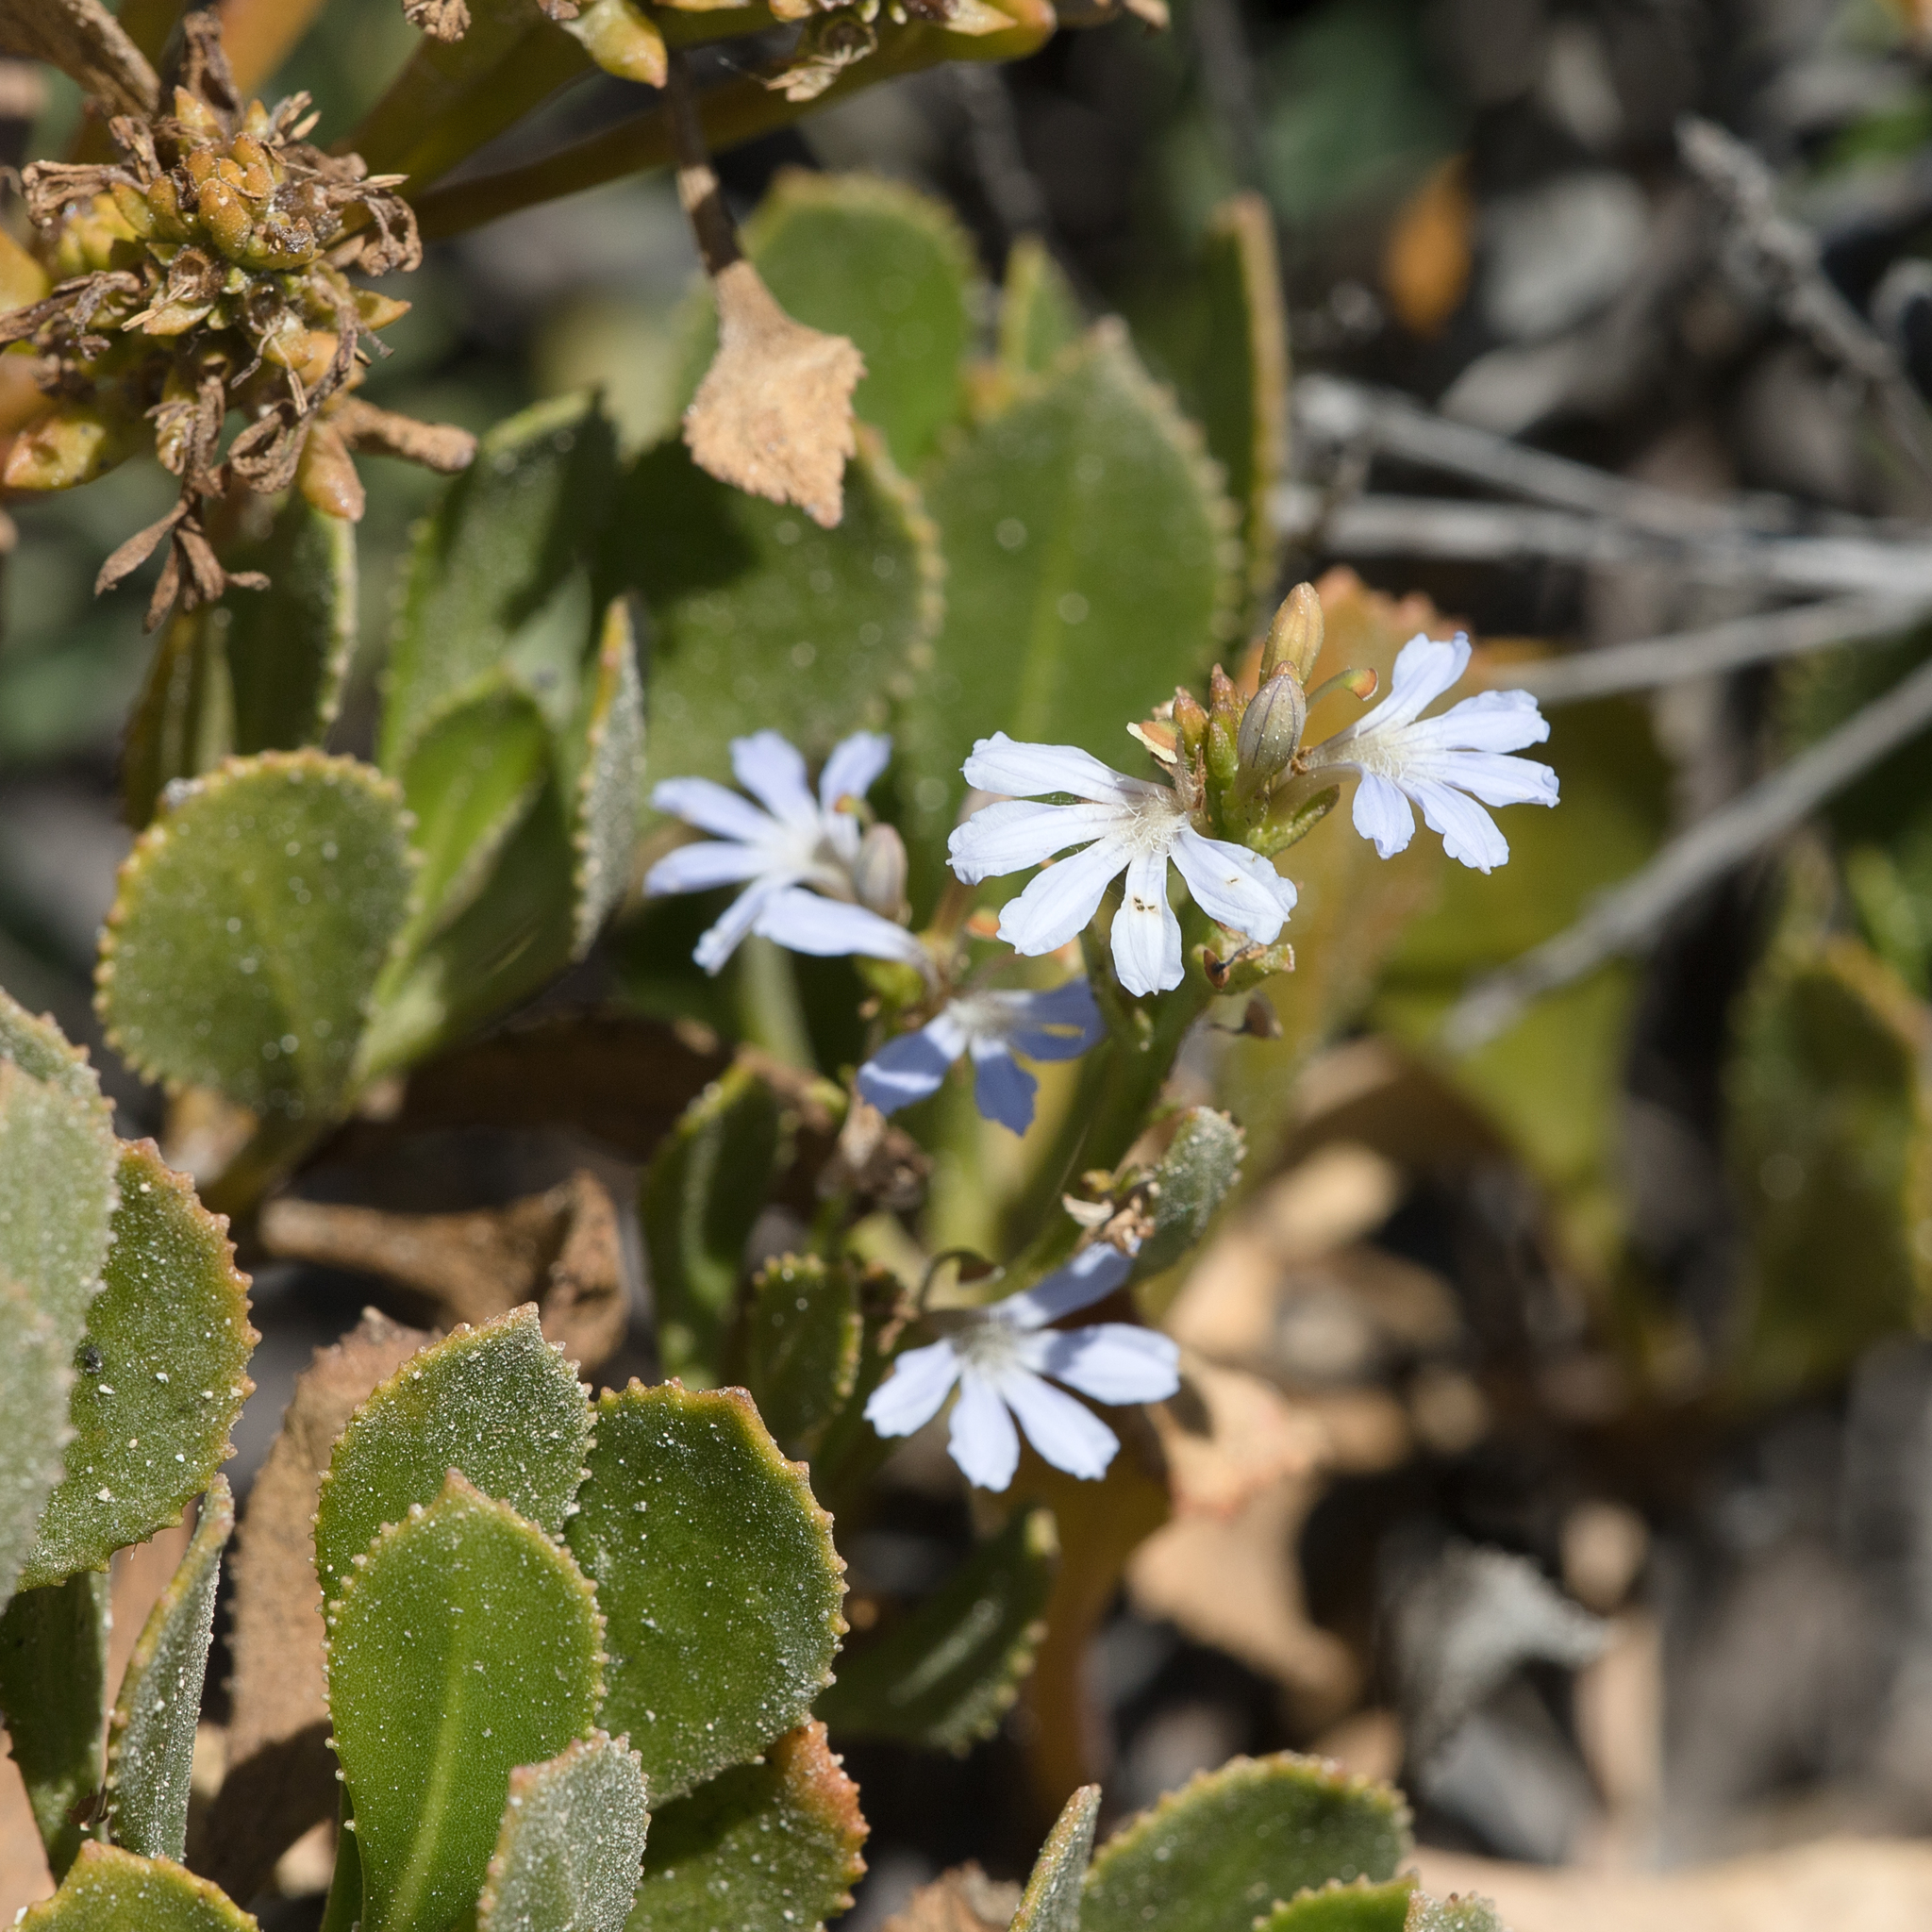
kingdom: Plantae
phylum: Tracheophyta
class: Magnoliopsida
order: Asterales
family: Goodeniaceae
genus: Scaevola
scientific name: Scaevola crassifolia
